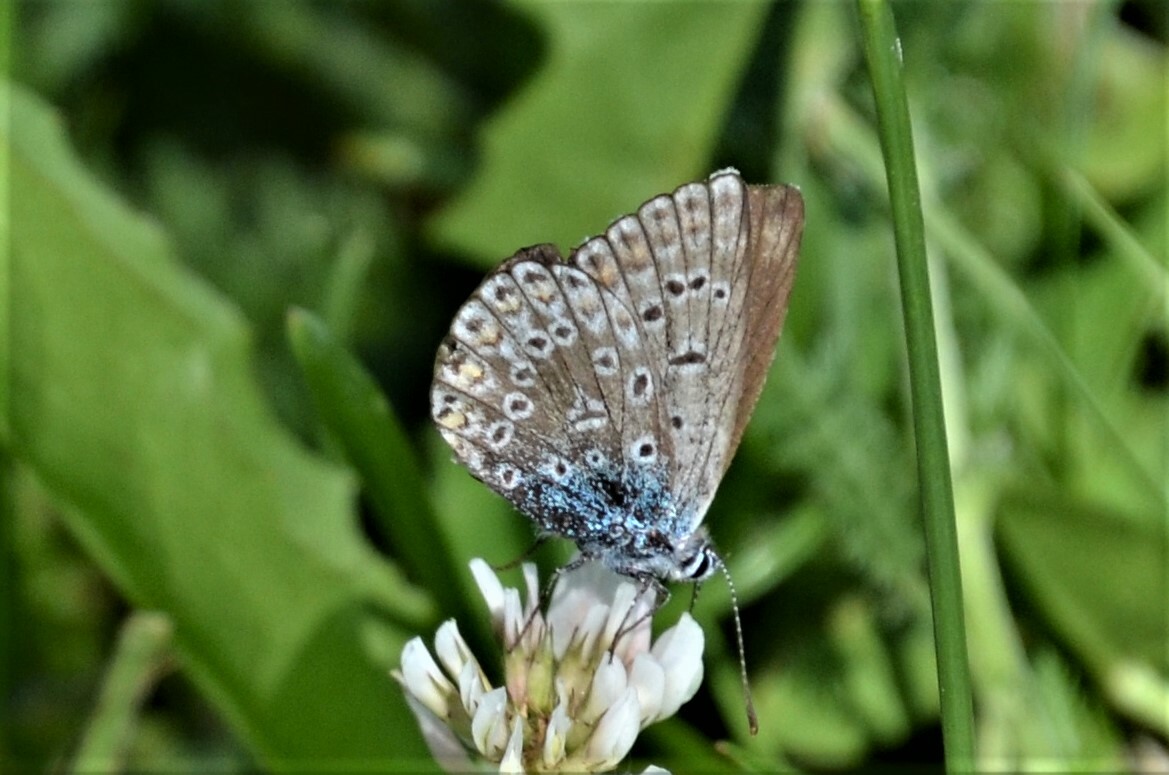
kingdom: Animalia
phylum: Arthropoda
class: Insecta
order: Lepidoptera
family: Lycaenidae
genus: Polyommatus
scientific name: Polyommatus icarus
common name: Common blue
